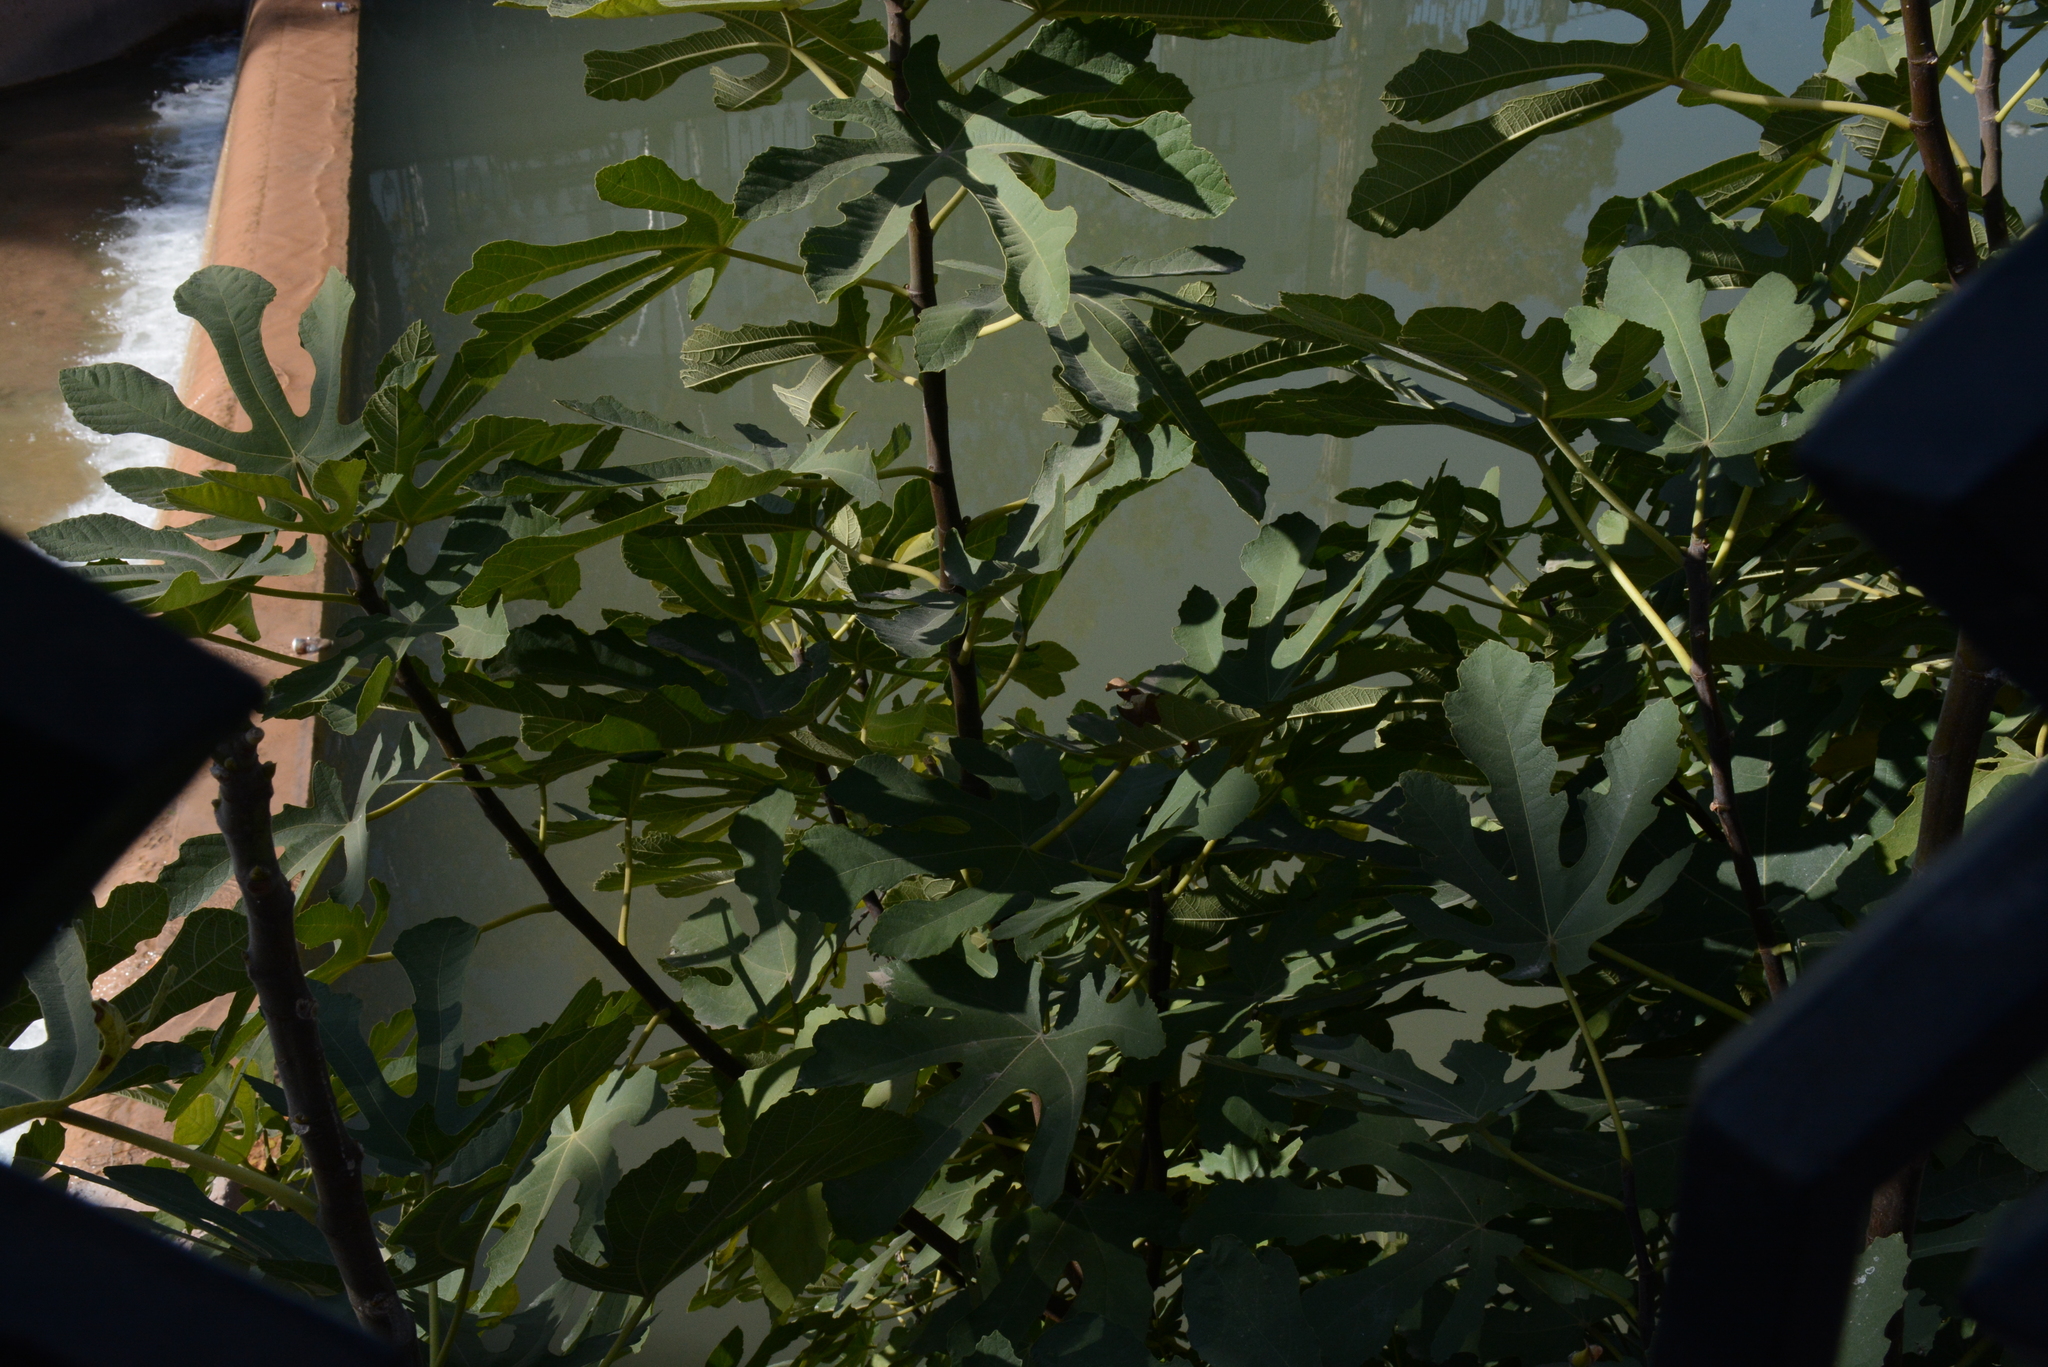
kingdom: Plantae
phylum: Tracheophyta
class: Magnoliopsida
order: Rosales
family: Moraceae
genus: Ficus
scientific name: Ficus carica
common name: Fig
